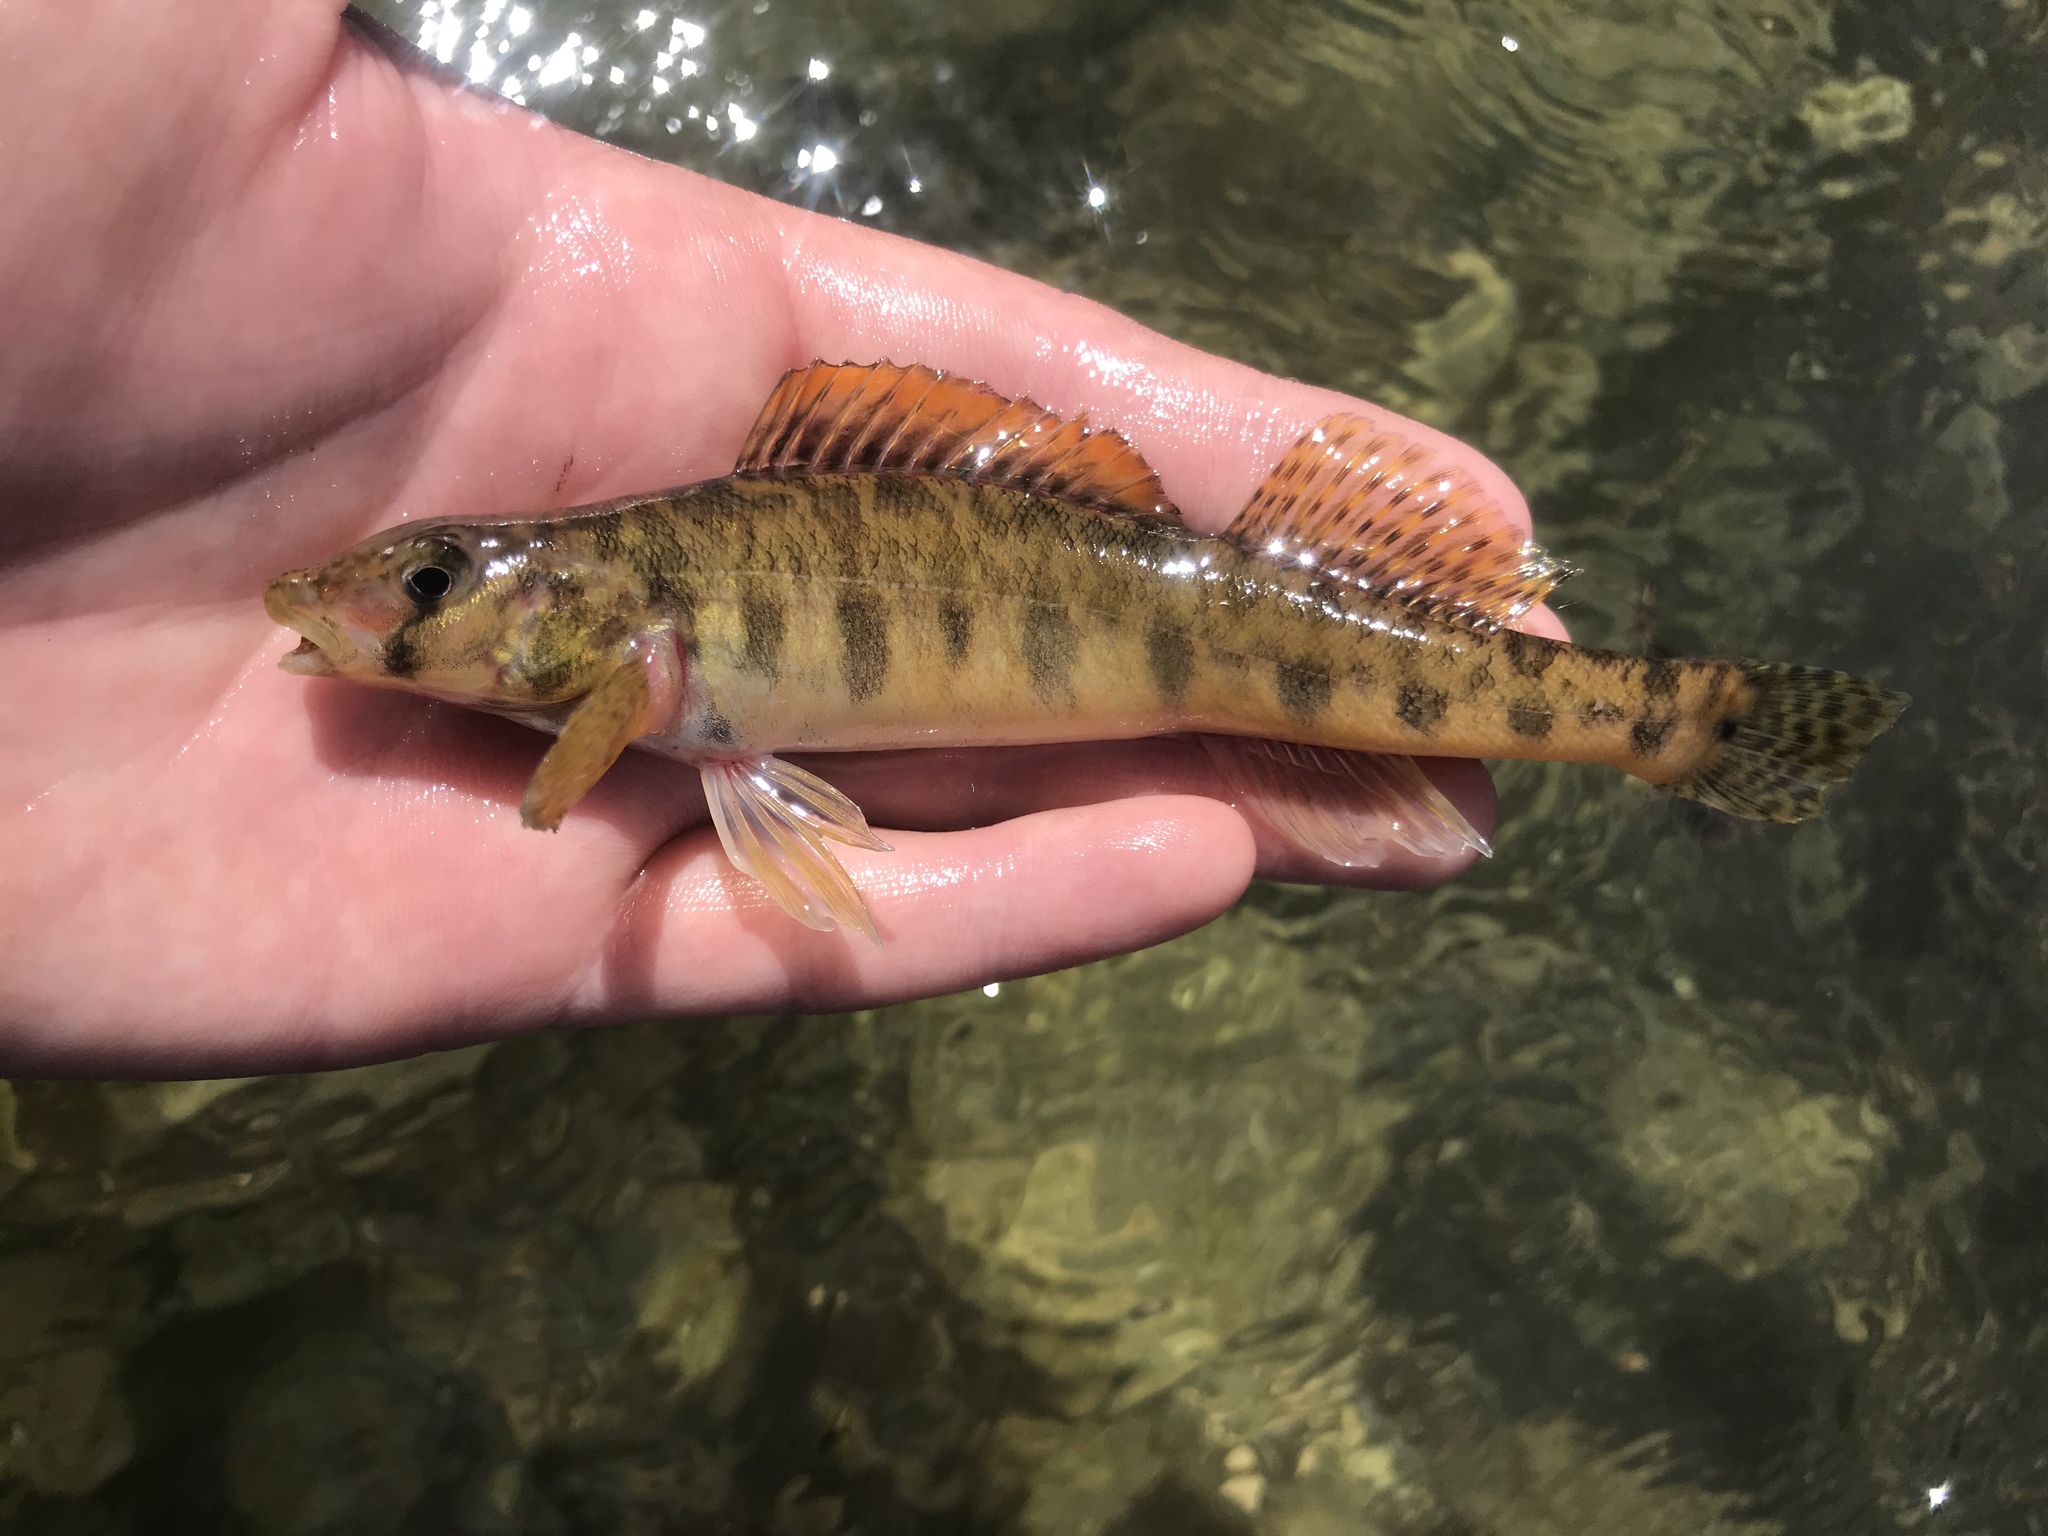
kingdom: Animalia
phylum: Chordata
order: Perciformes
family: Percidae
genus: Percina
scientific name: Percina carbonaria
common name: Texas logperch
